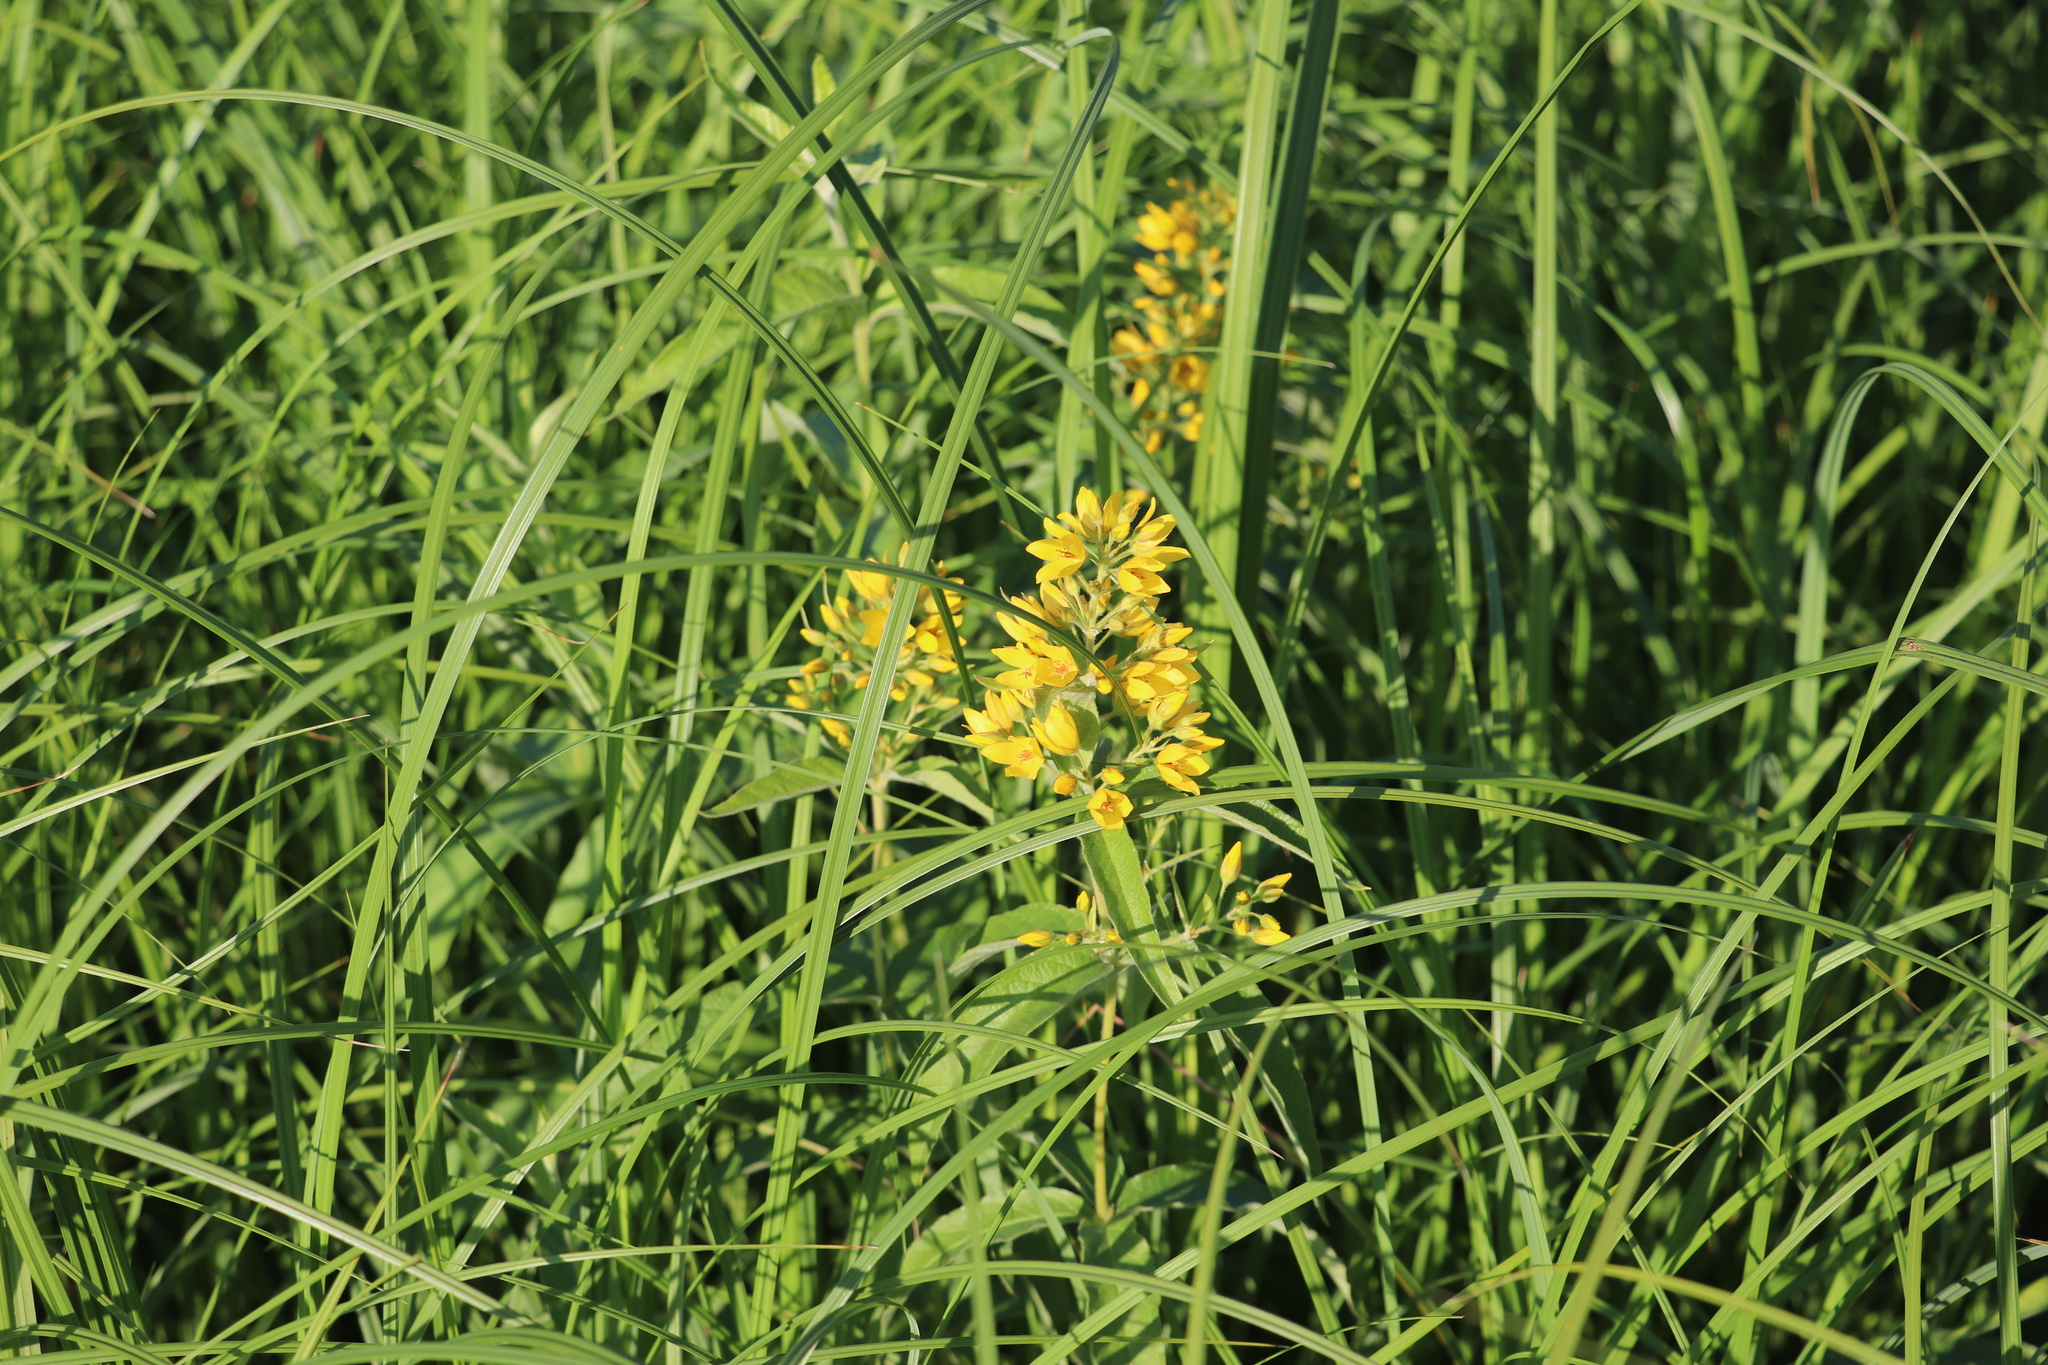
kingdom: Plantae
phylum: Tracheophyta
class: Magnoliopsida
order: Ericales
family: Primulaceae
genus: Lysimachia
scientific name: Lysimachia vulgaris
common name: Yellow loosestrife
